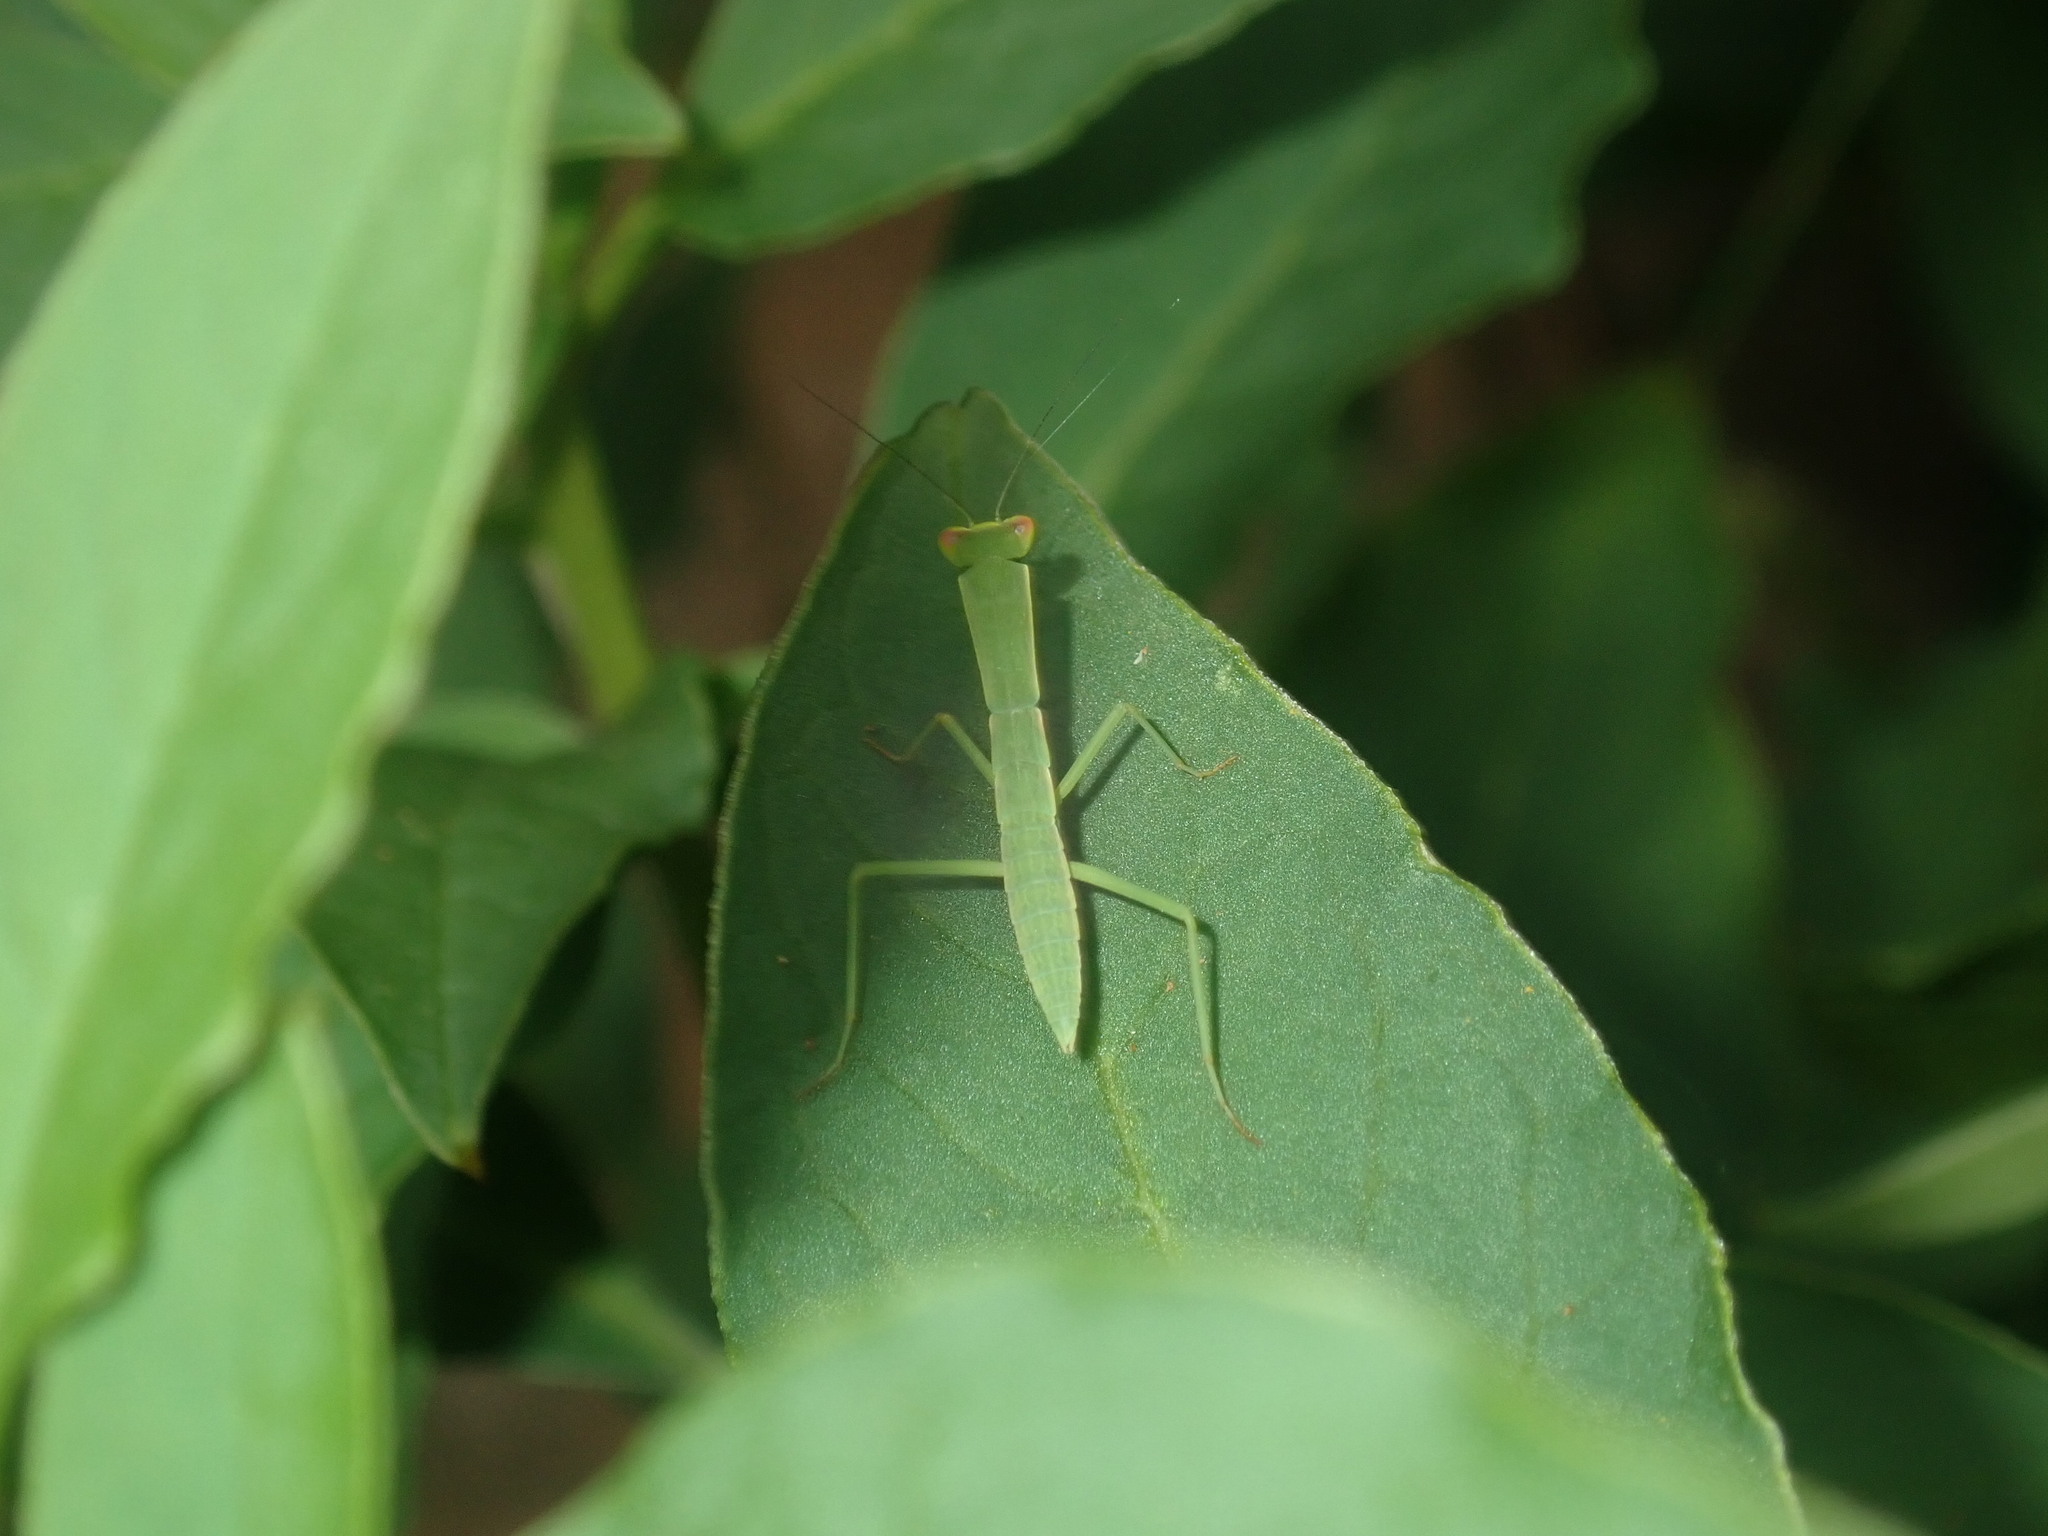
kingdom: Animalia
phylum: Arthropoda
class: Insecta
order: Mantodea
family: Mantidae
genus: Orthodera
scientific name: Orthodera ministralis
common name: Mantis
